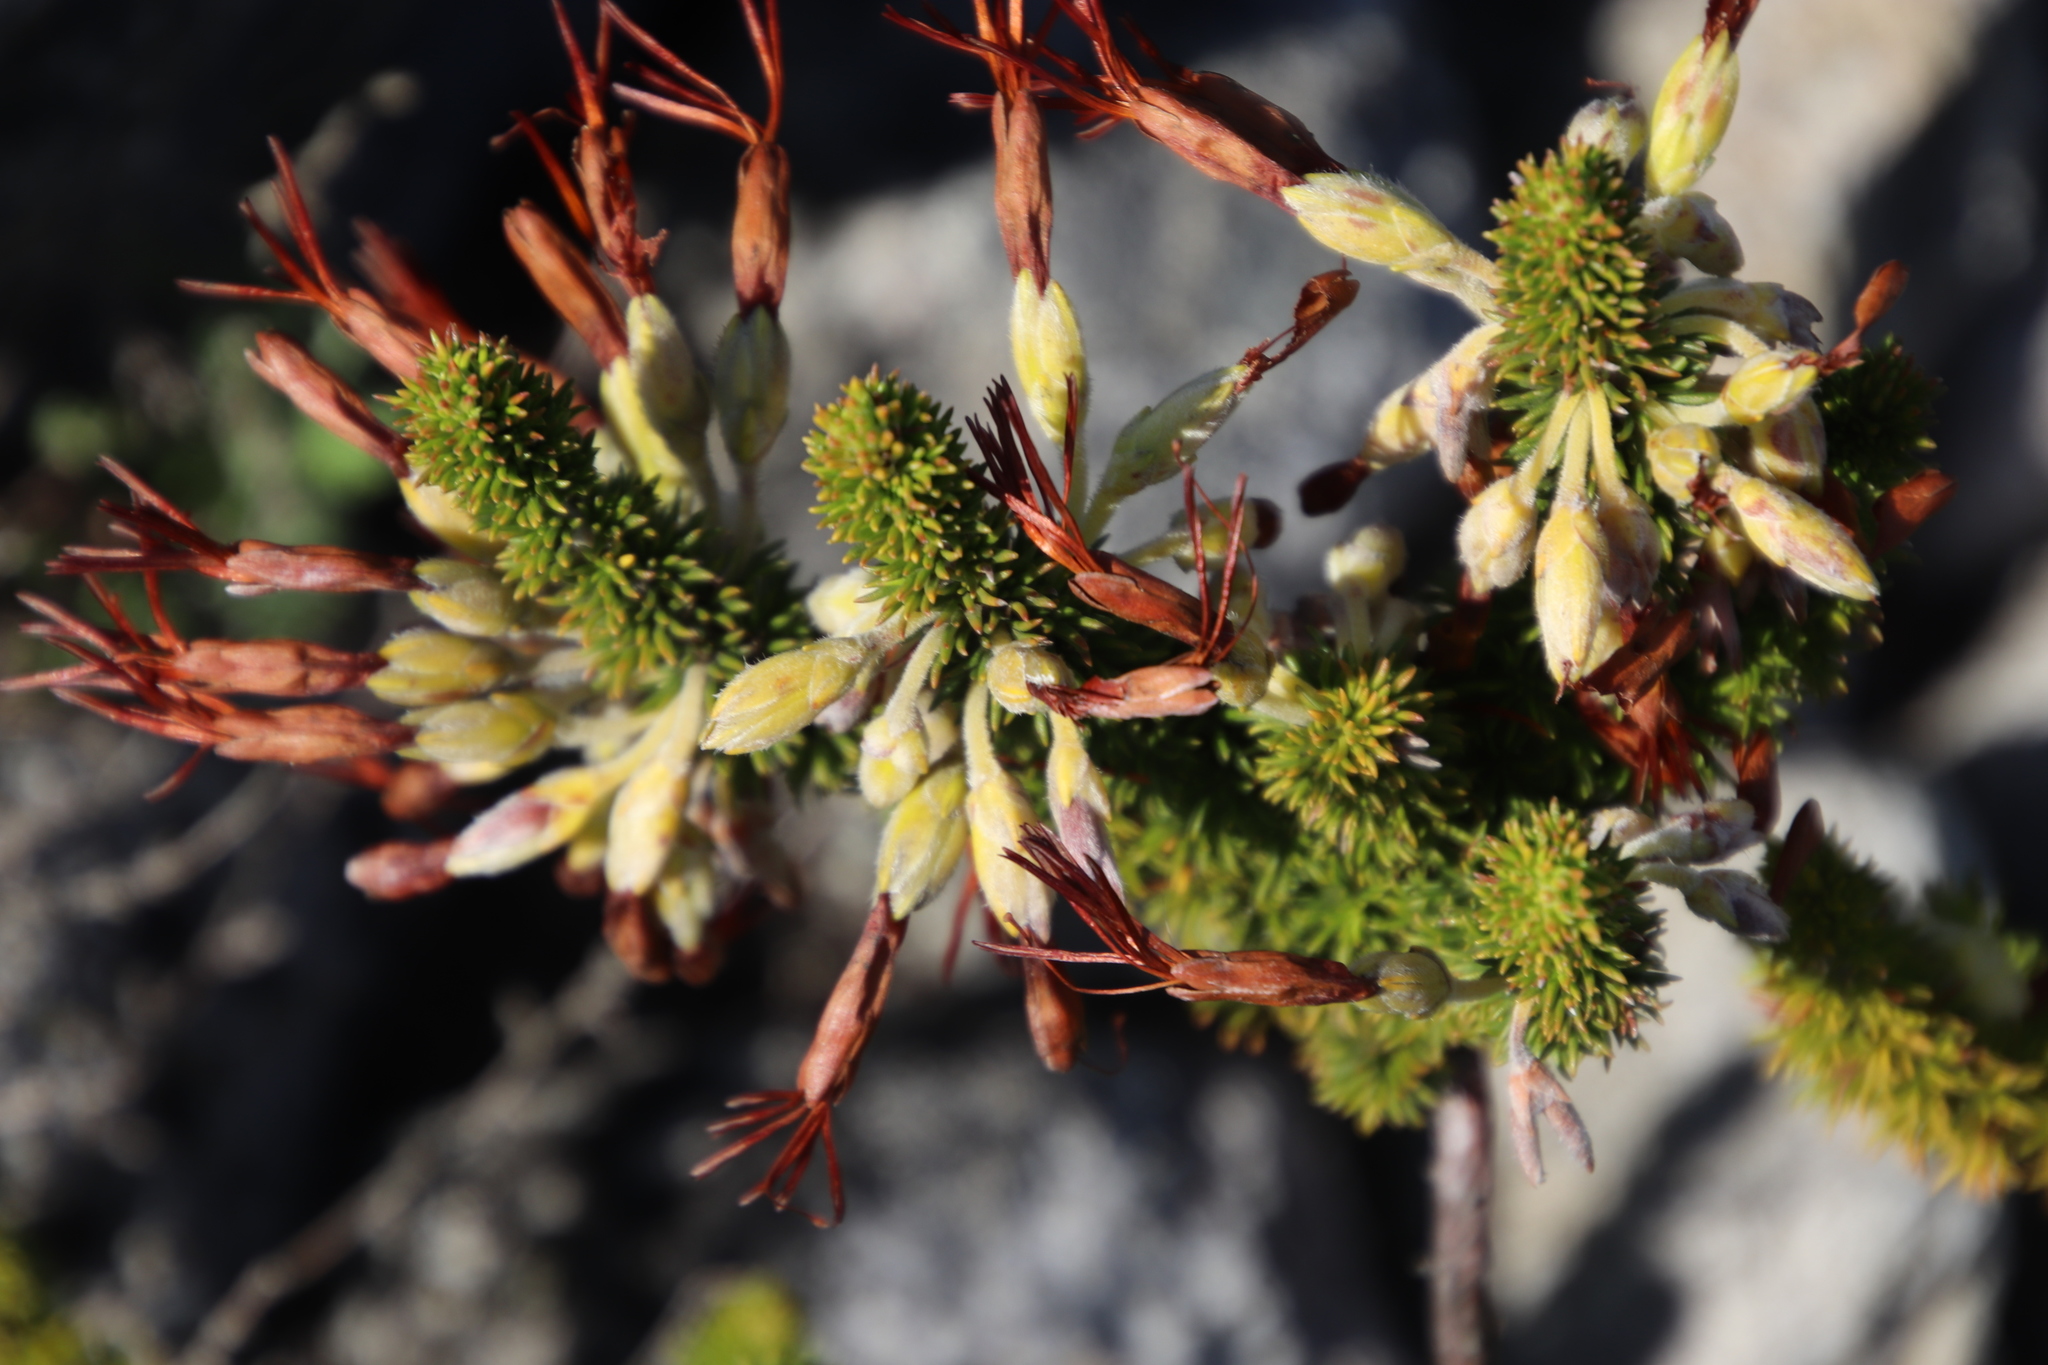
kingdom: Plantae
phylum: Tracheophyta
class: Magnoliopsida
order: Ericales
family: Ericaceae
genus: Erica
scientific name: Erica coccinea
